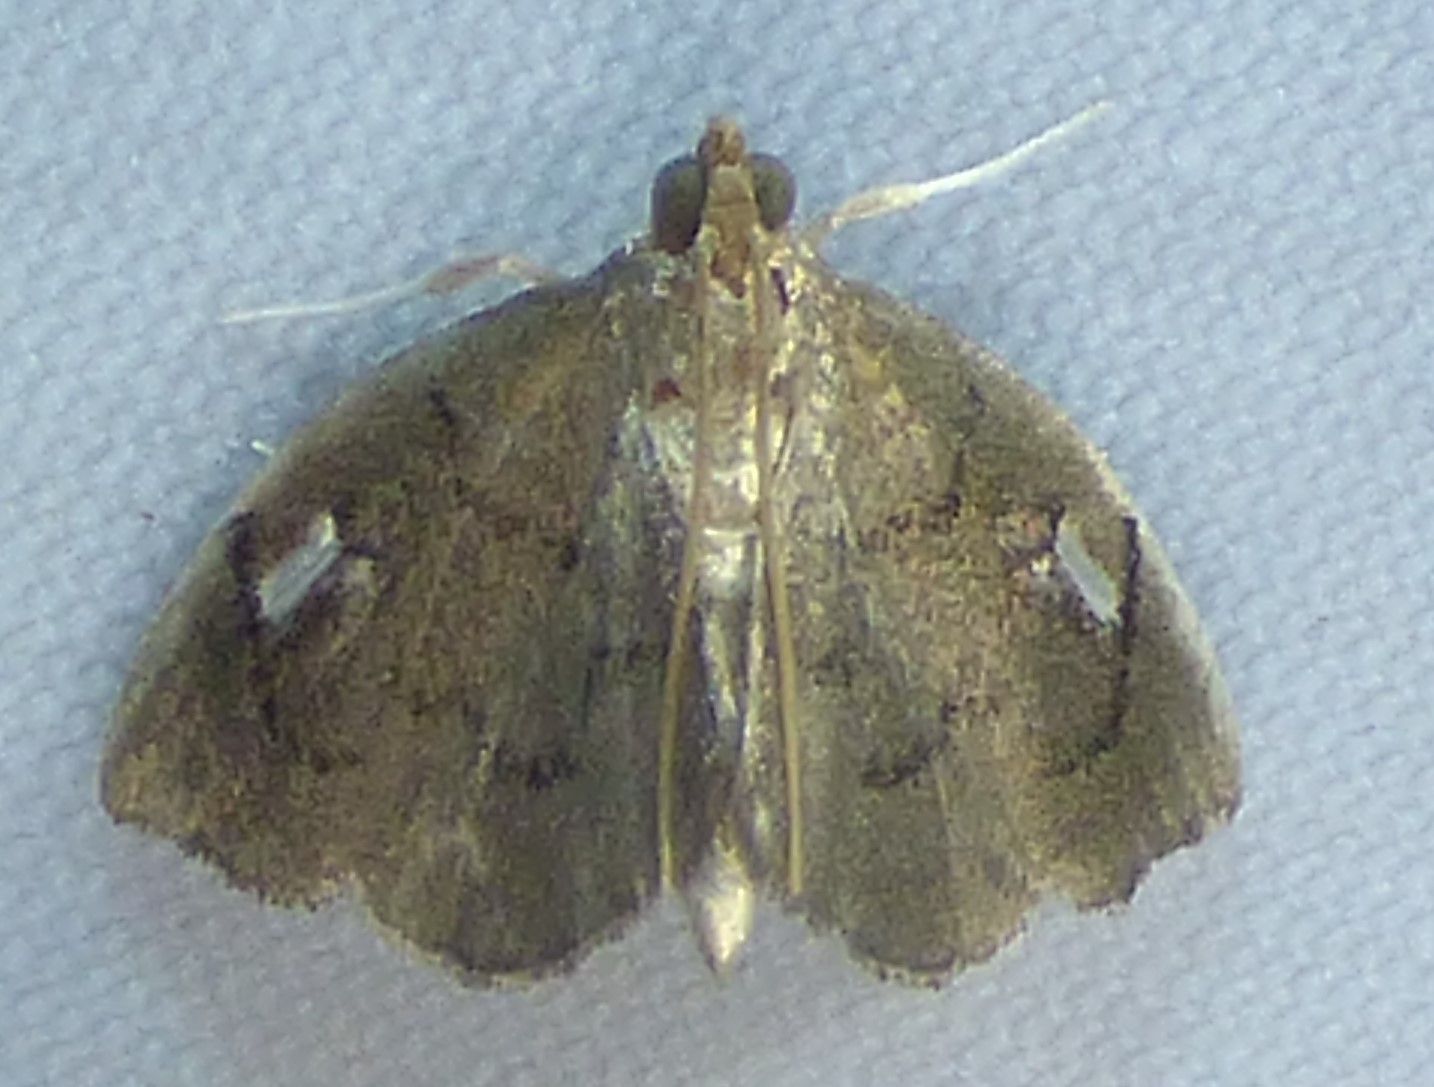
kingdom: Animalia
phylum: Arthropoda
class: Insecta
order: Lepidoptera
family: Crambidae
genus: Perispasta
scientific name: Perispasta caeculalis
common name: Titian peale's moth
